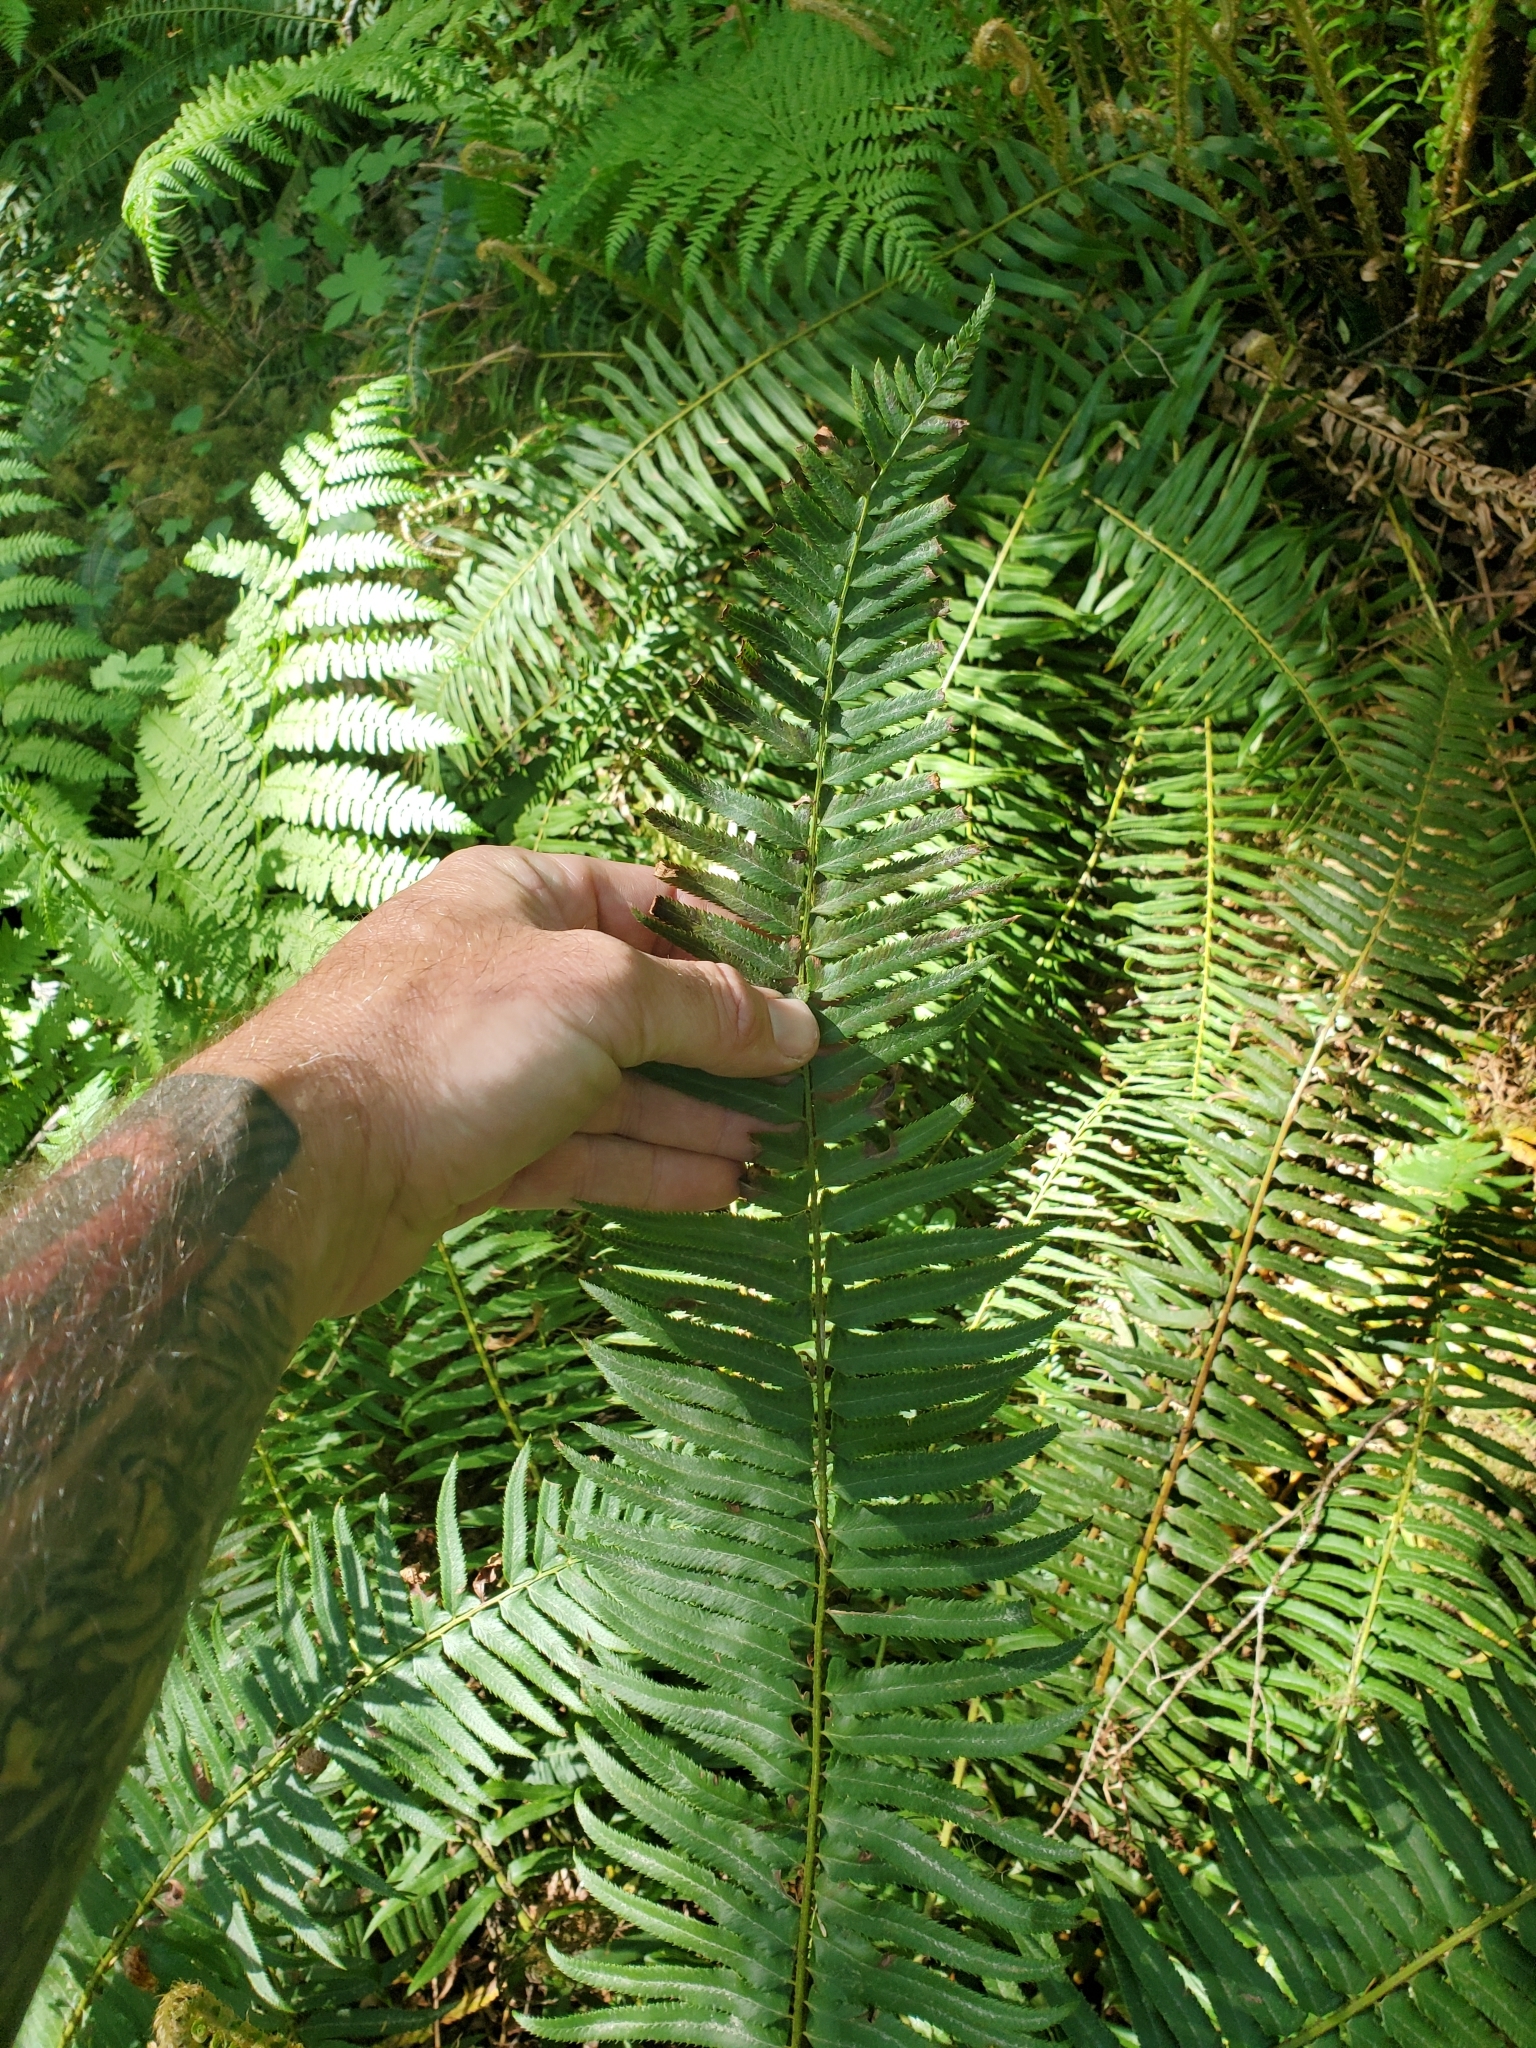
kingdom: Plantae
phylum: Tracheophyta
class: Polypodiopsida
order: Polypodiales
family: Dryopteridaceae
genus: Polystichum
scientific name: Polystichum munitum
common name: Western sword-fern
